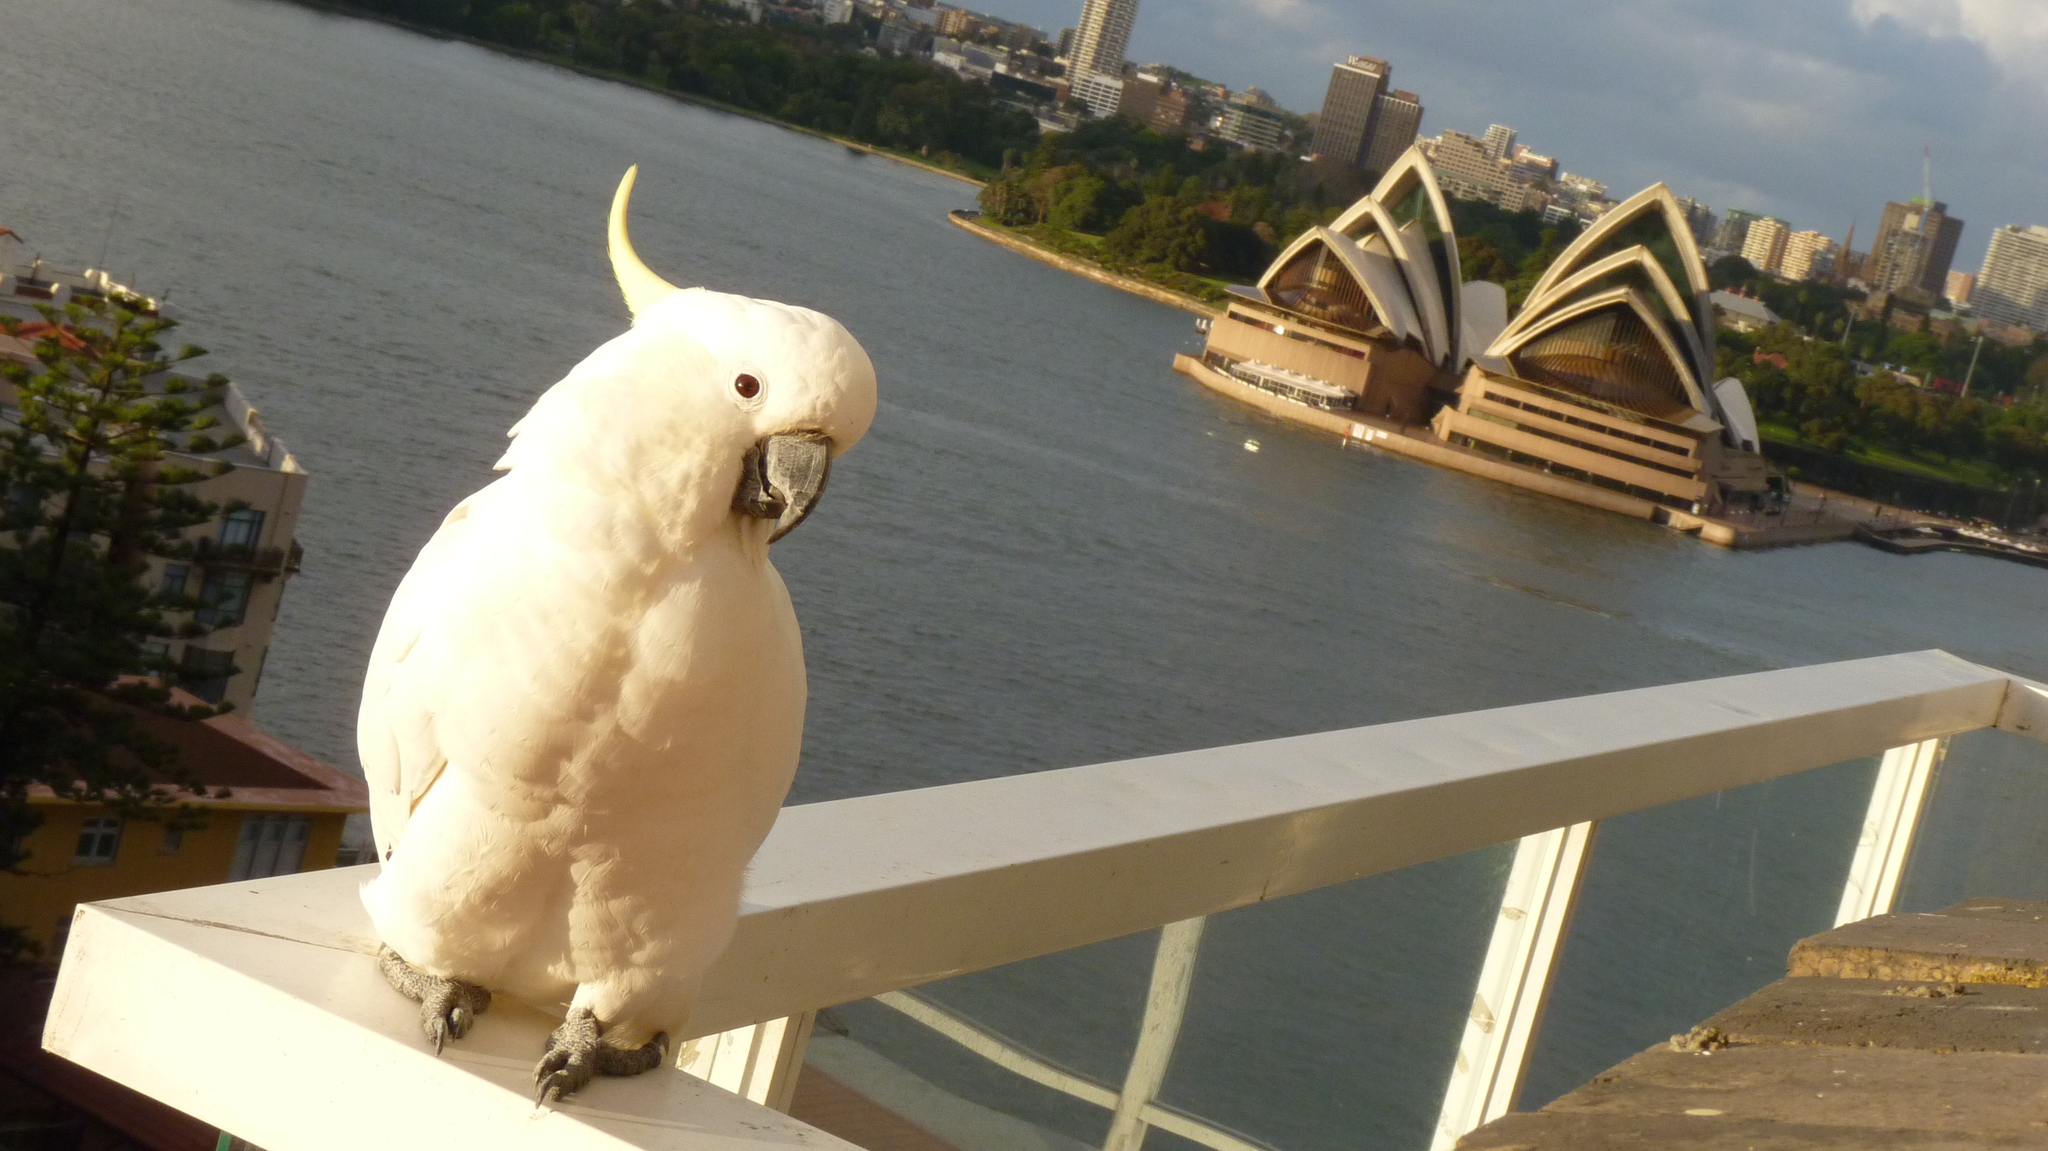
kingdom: Animalia
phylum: Chordata
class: Aves
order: Psittaciformes
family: Psittacidae
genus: Cacatua
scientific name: Cacatua galerita
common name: Sulphur-crested cockatoo
